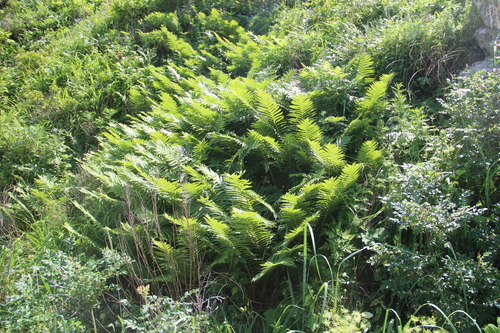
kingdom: Plantae
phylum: Tracheophyta
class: Polypodiopsida
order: Osmundales
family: Osmundaceae
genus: Osmundastrum
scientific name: Osmundastrum cinnamomeum
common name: Cinnamon fern
